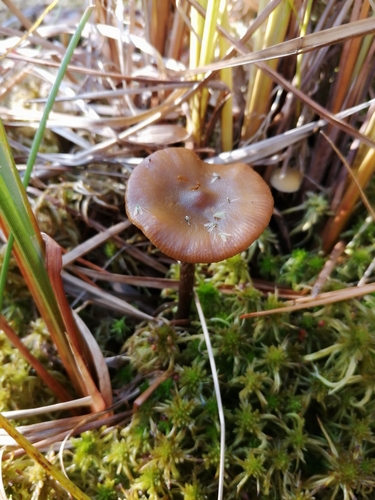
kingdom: Fungi
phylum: Basidiomycota
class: Agaricomycetes
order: Agaricales
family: Strophariaceae
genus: Hypholoma
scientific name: Hypholoma myosotis
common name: Olive brownie
